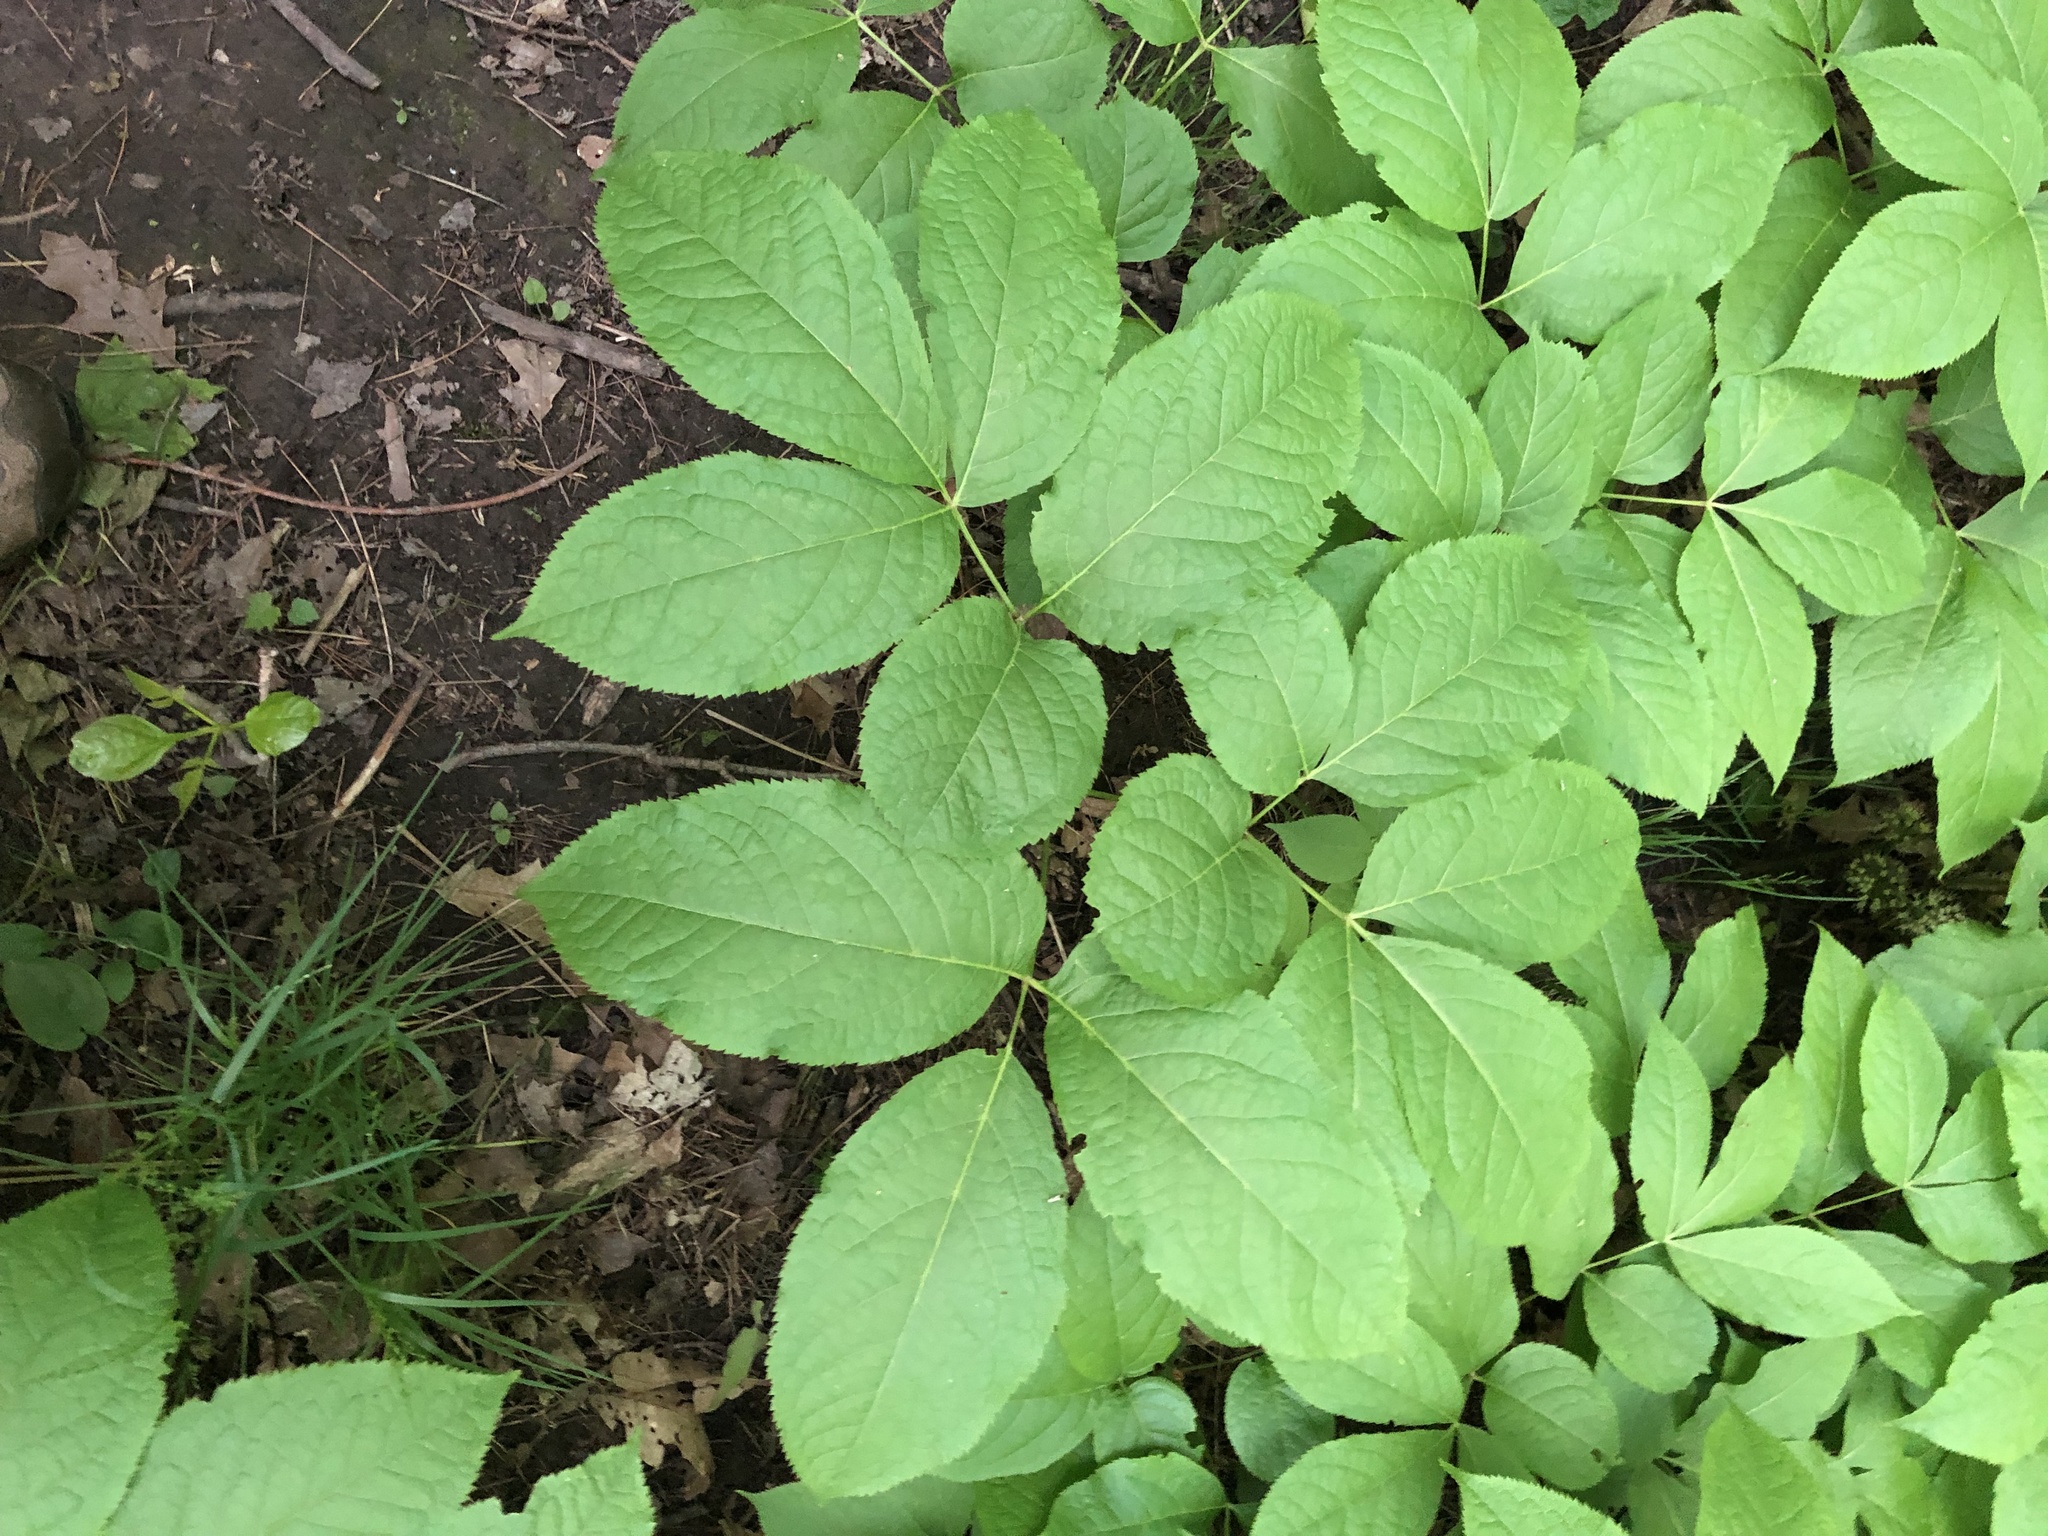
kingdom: Plantae
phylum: Tracheophyta
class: Magnoliopsida
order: Apiales
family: Araliaceae
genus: Aralia
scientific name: Aralia nudicaulis
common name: Wild sarsaparilla
